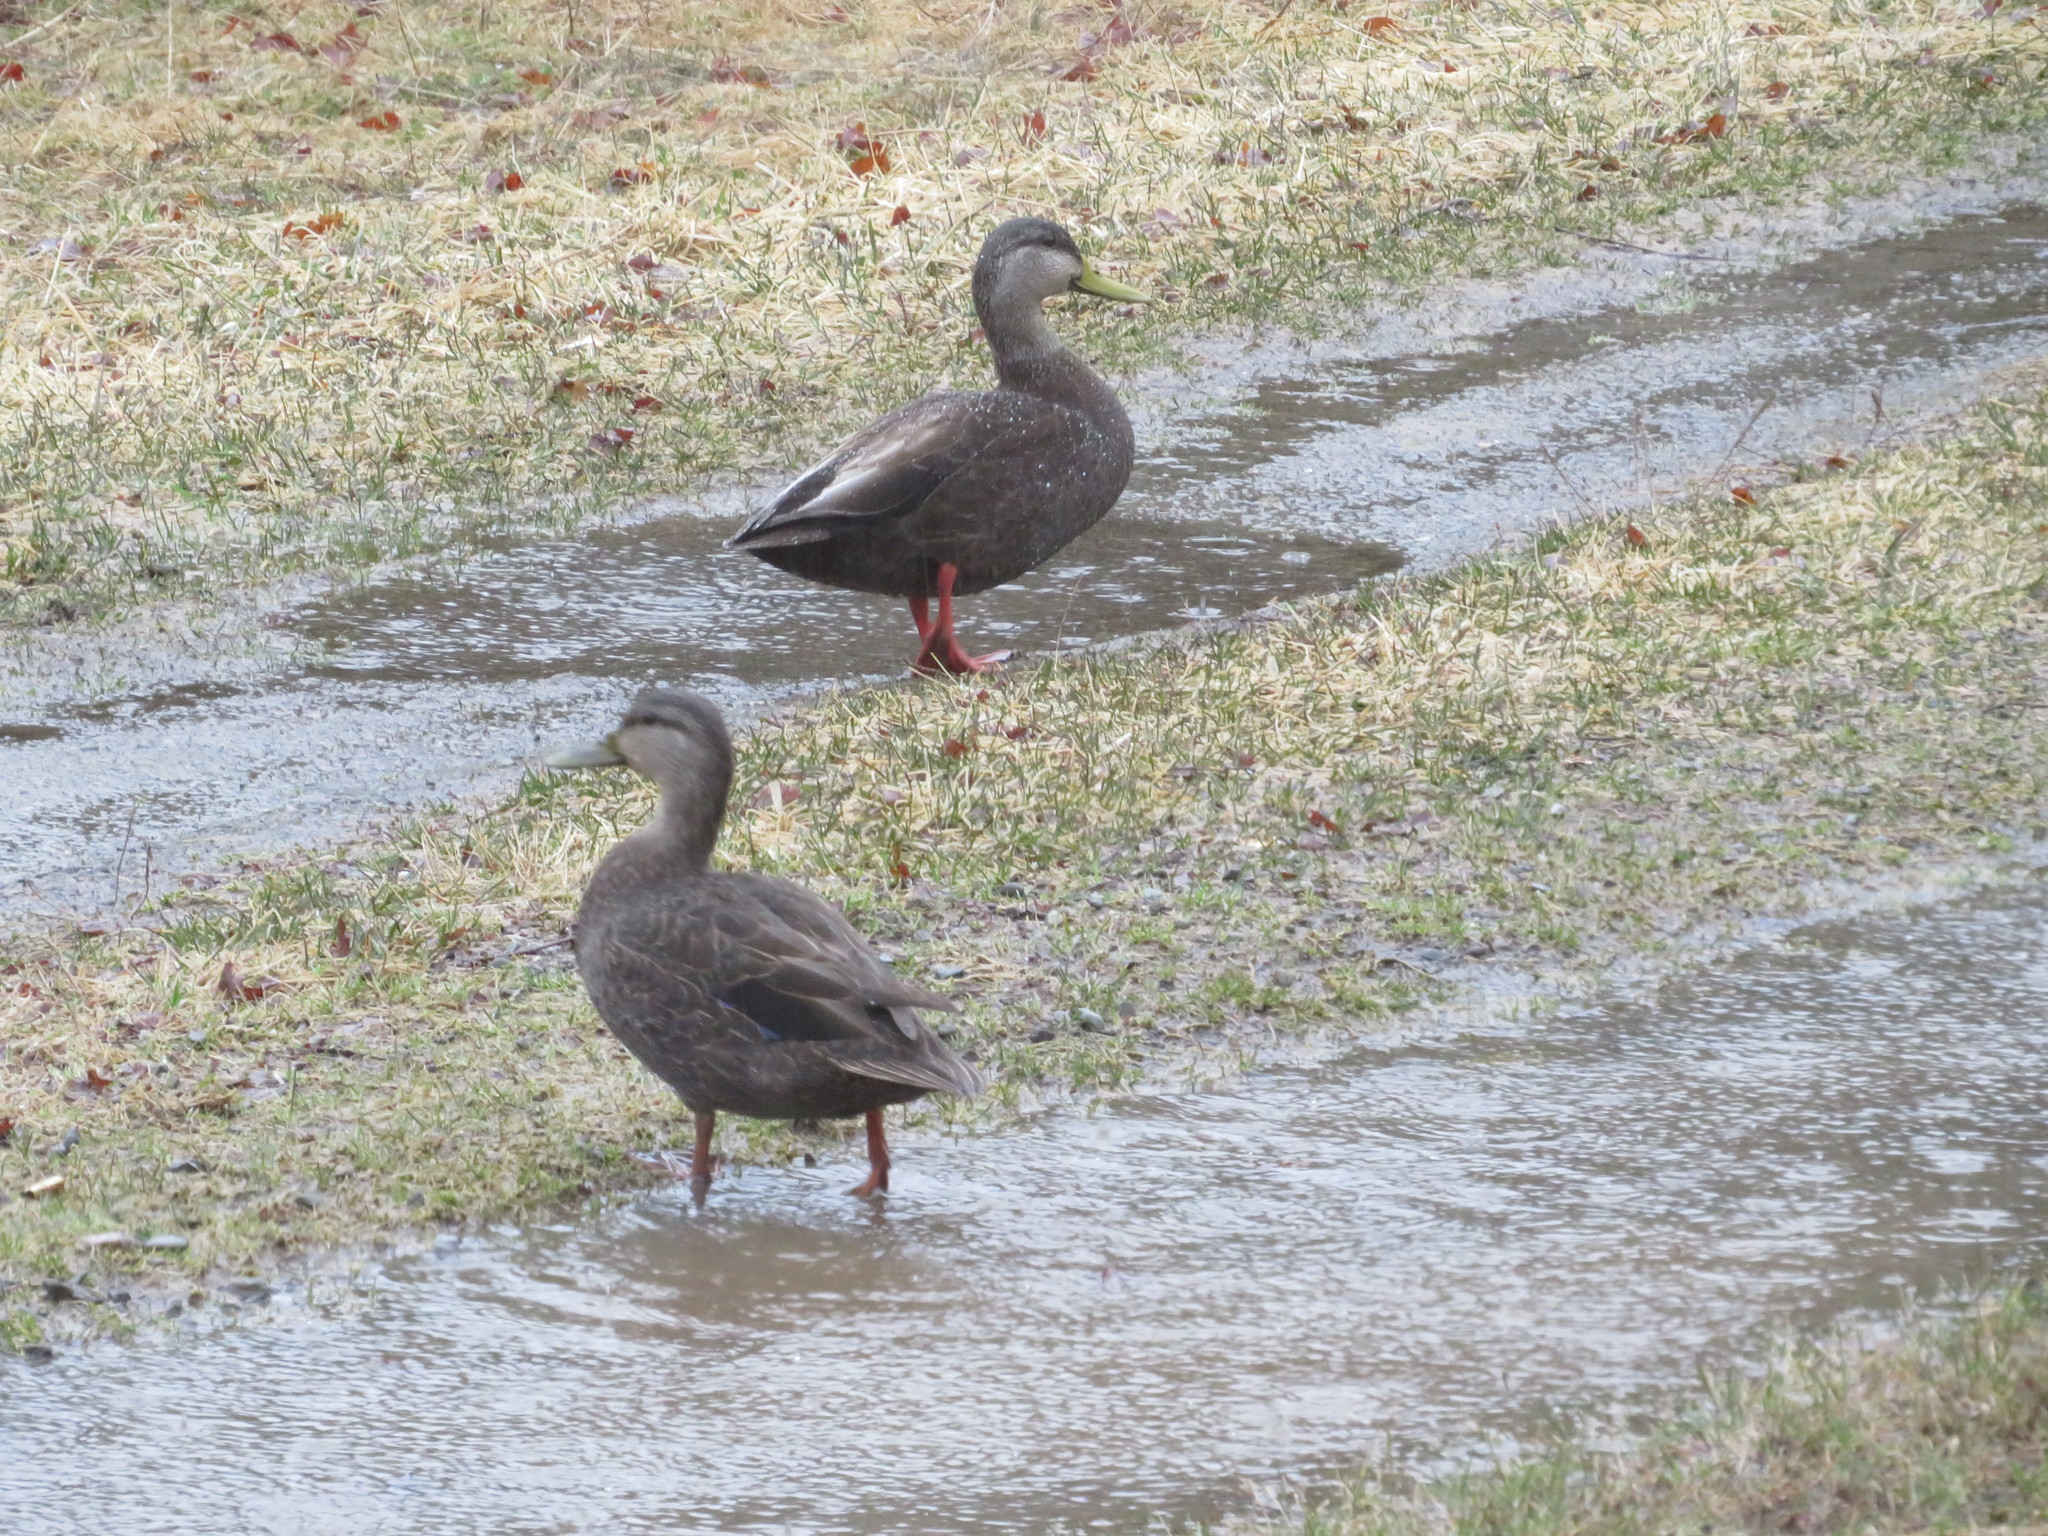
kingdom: Animalia
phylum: Chordata
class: Aves
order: Anseriformes
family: Anatidae
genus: Anas
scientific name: Anas rubripes
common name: American black duck
